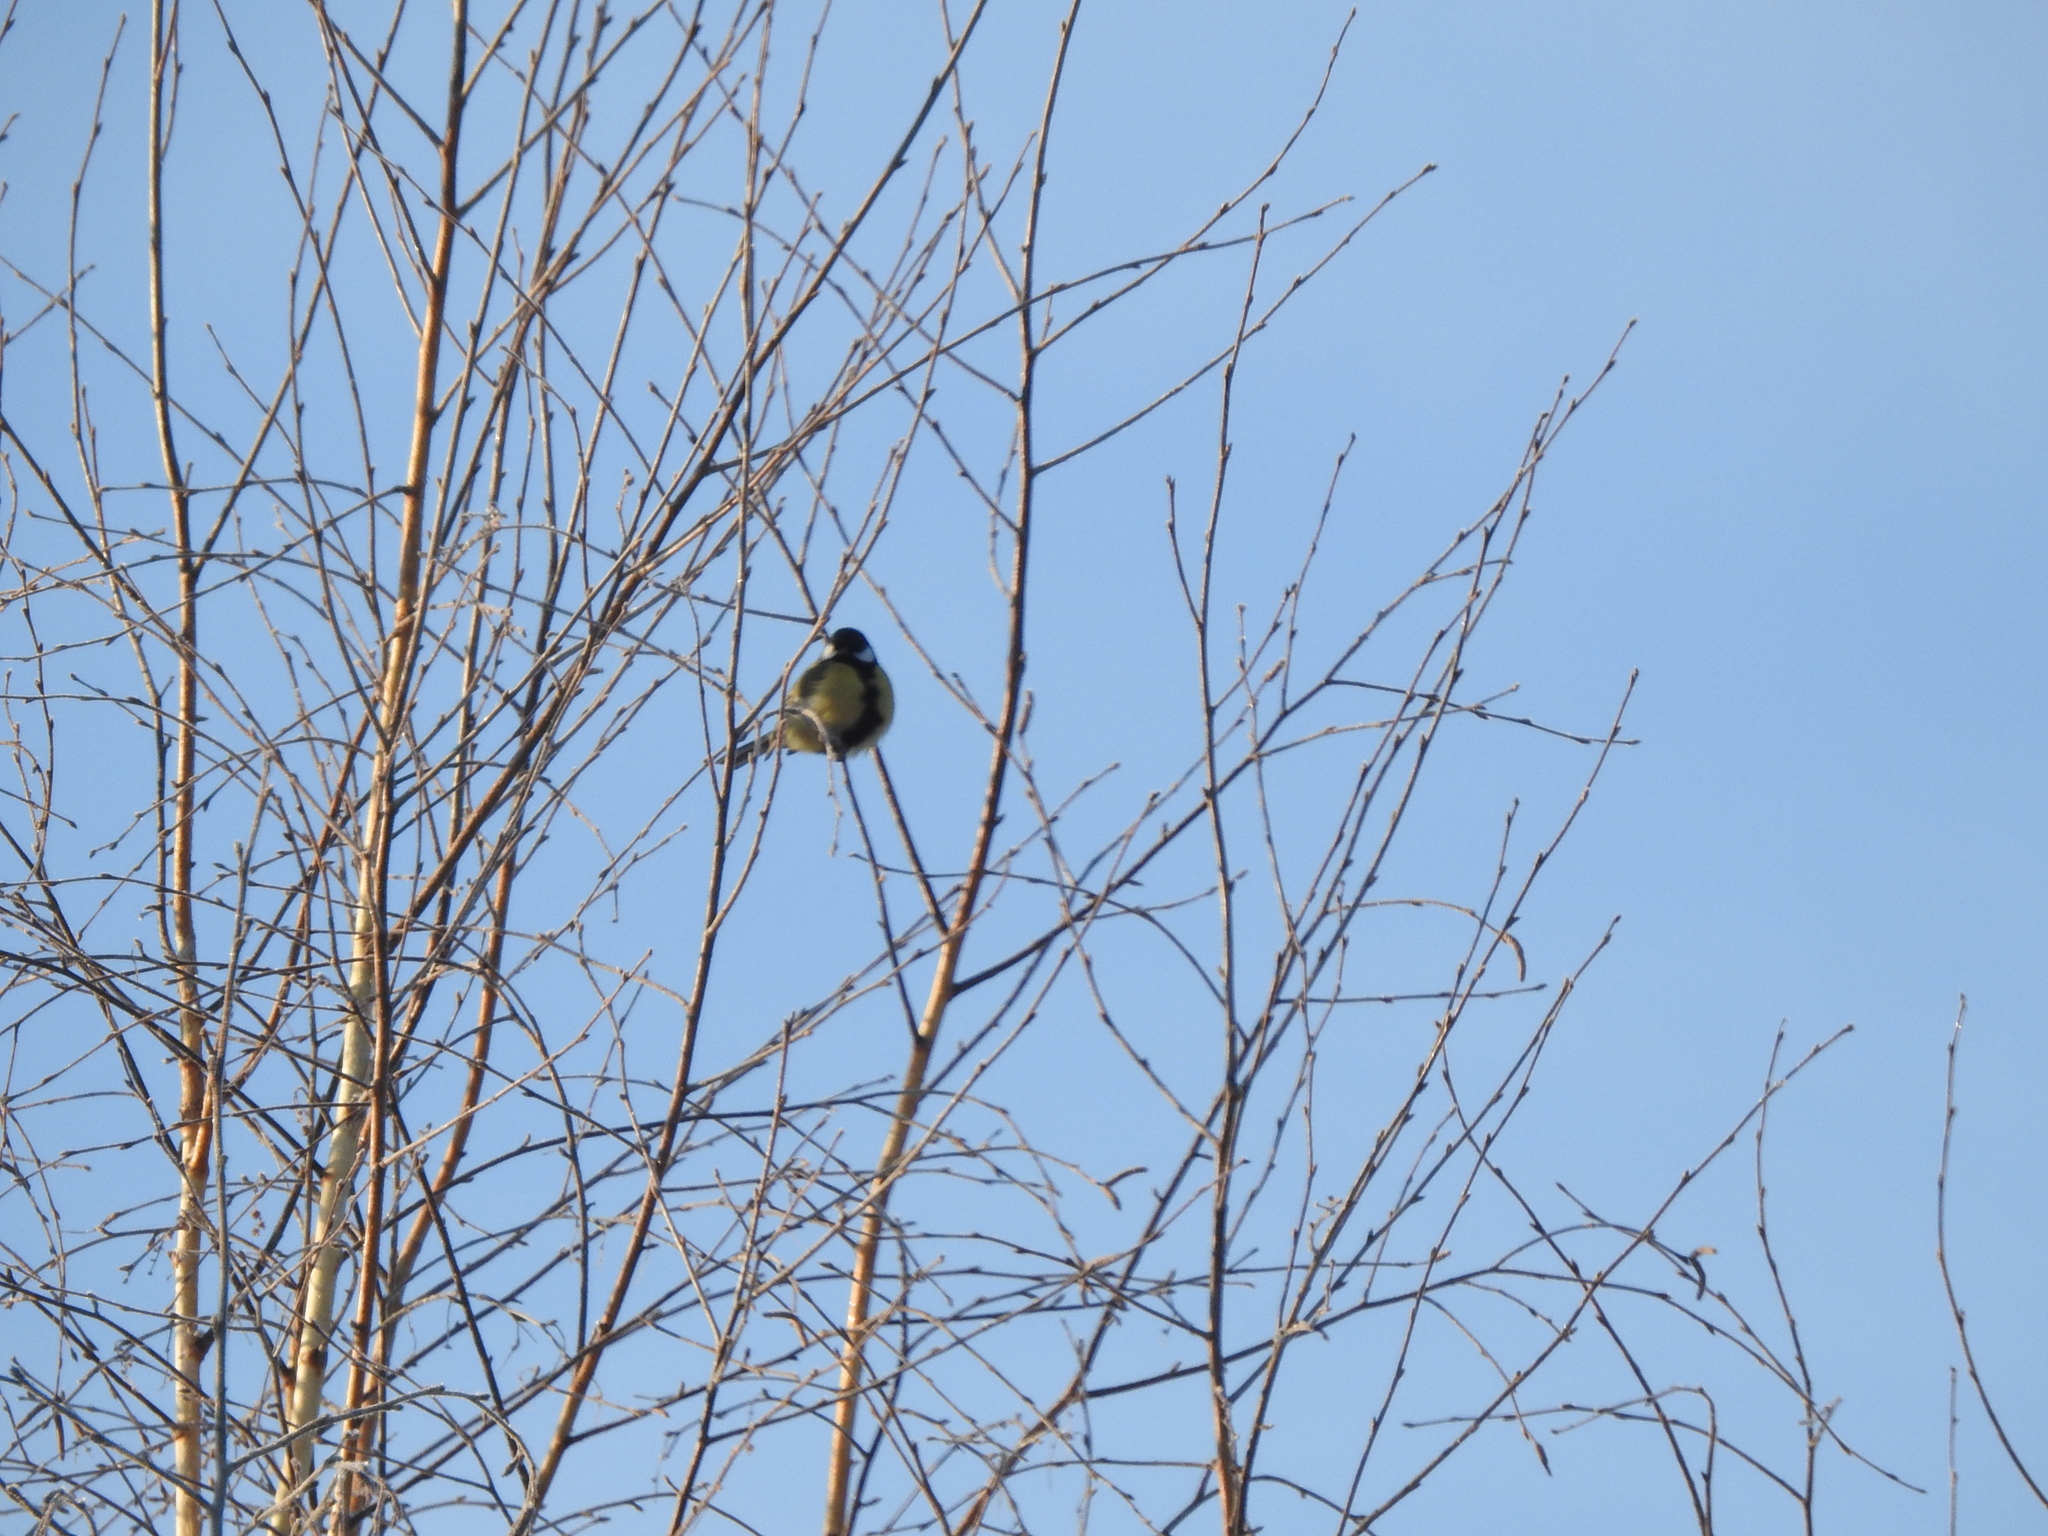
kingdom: Animalia
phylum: Chordata
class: Aves
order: Passeriformes
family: Paridae
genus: Parus
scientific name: Parus major
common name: Great tit
